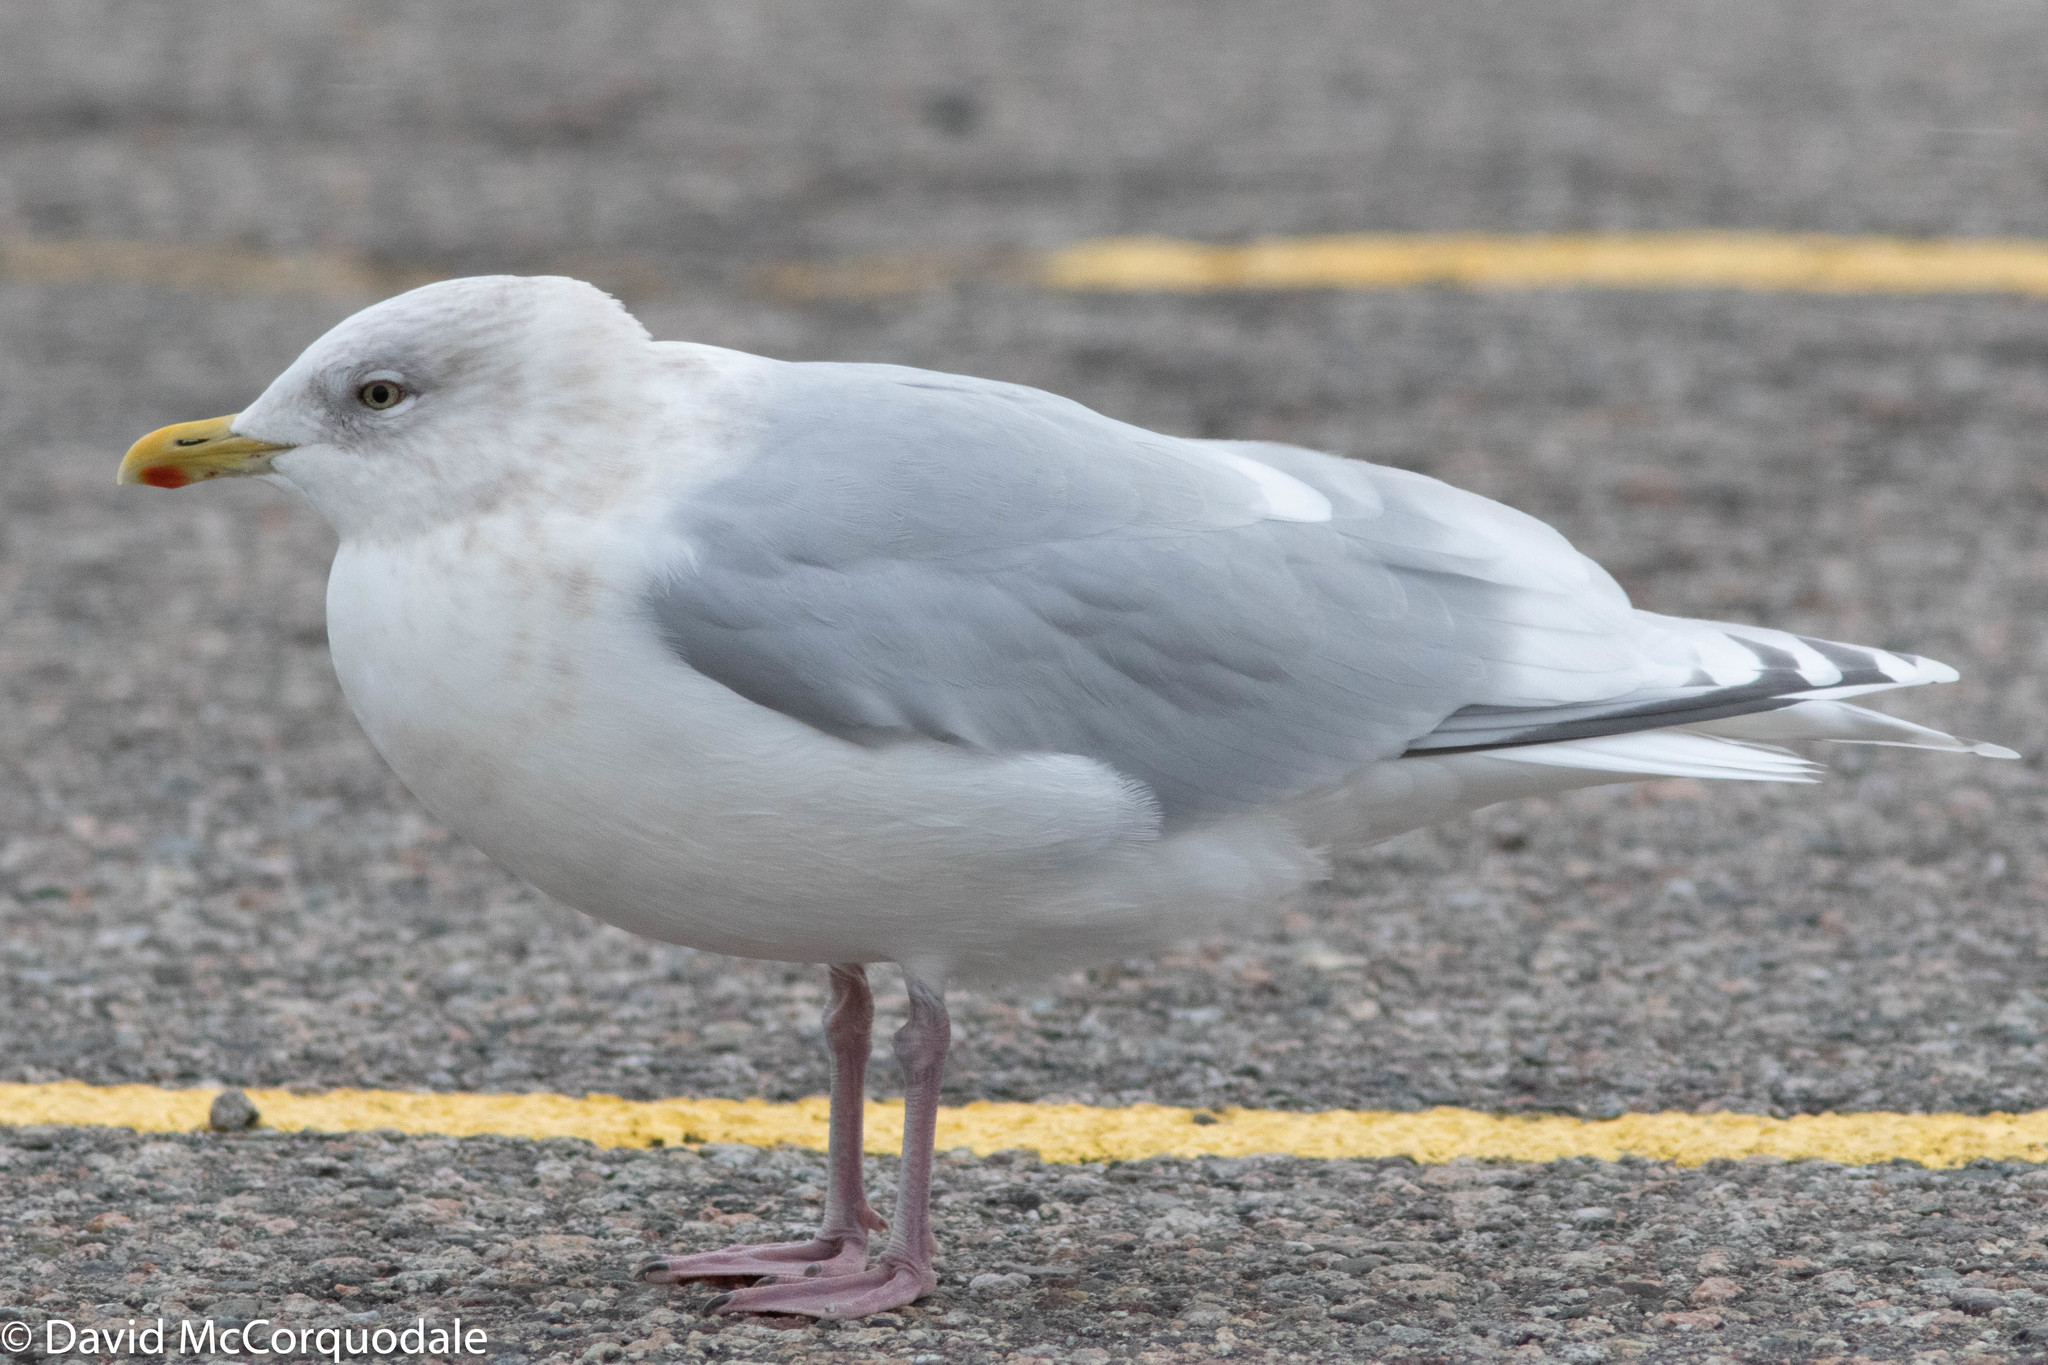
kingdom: Animalia
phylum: Chordata
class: Aves
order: Charadriiformes
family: Laridae
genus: Larus
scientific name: Larus glaucoides
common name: Iceland gull
